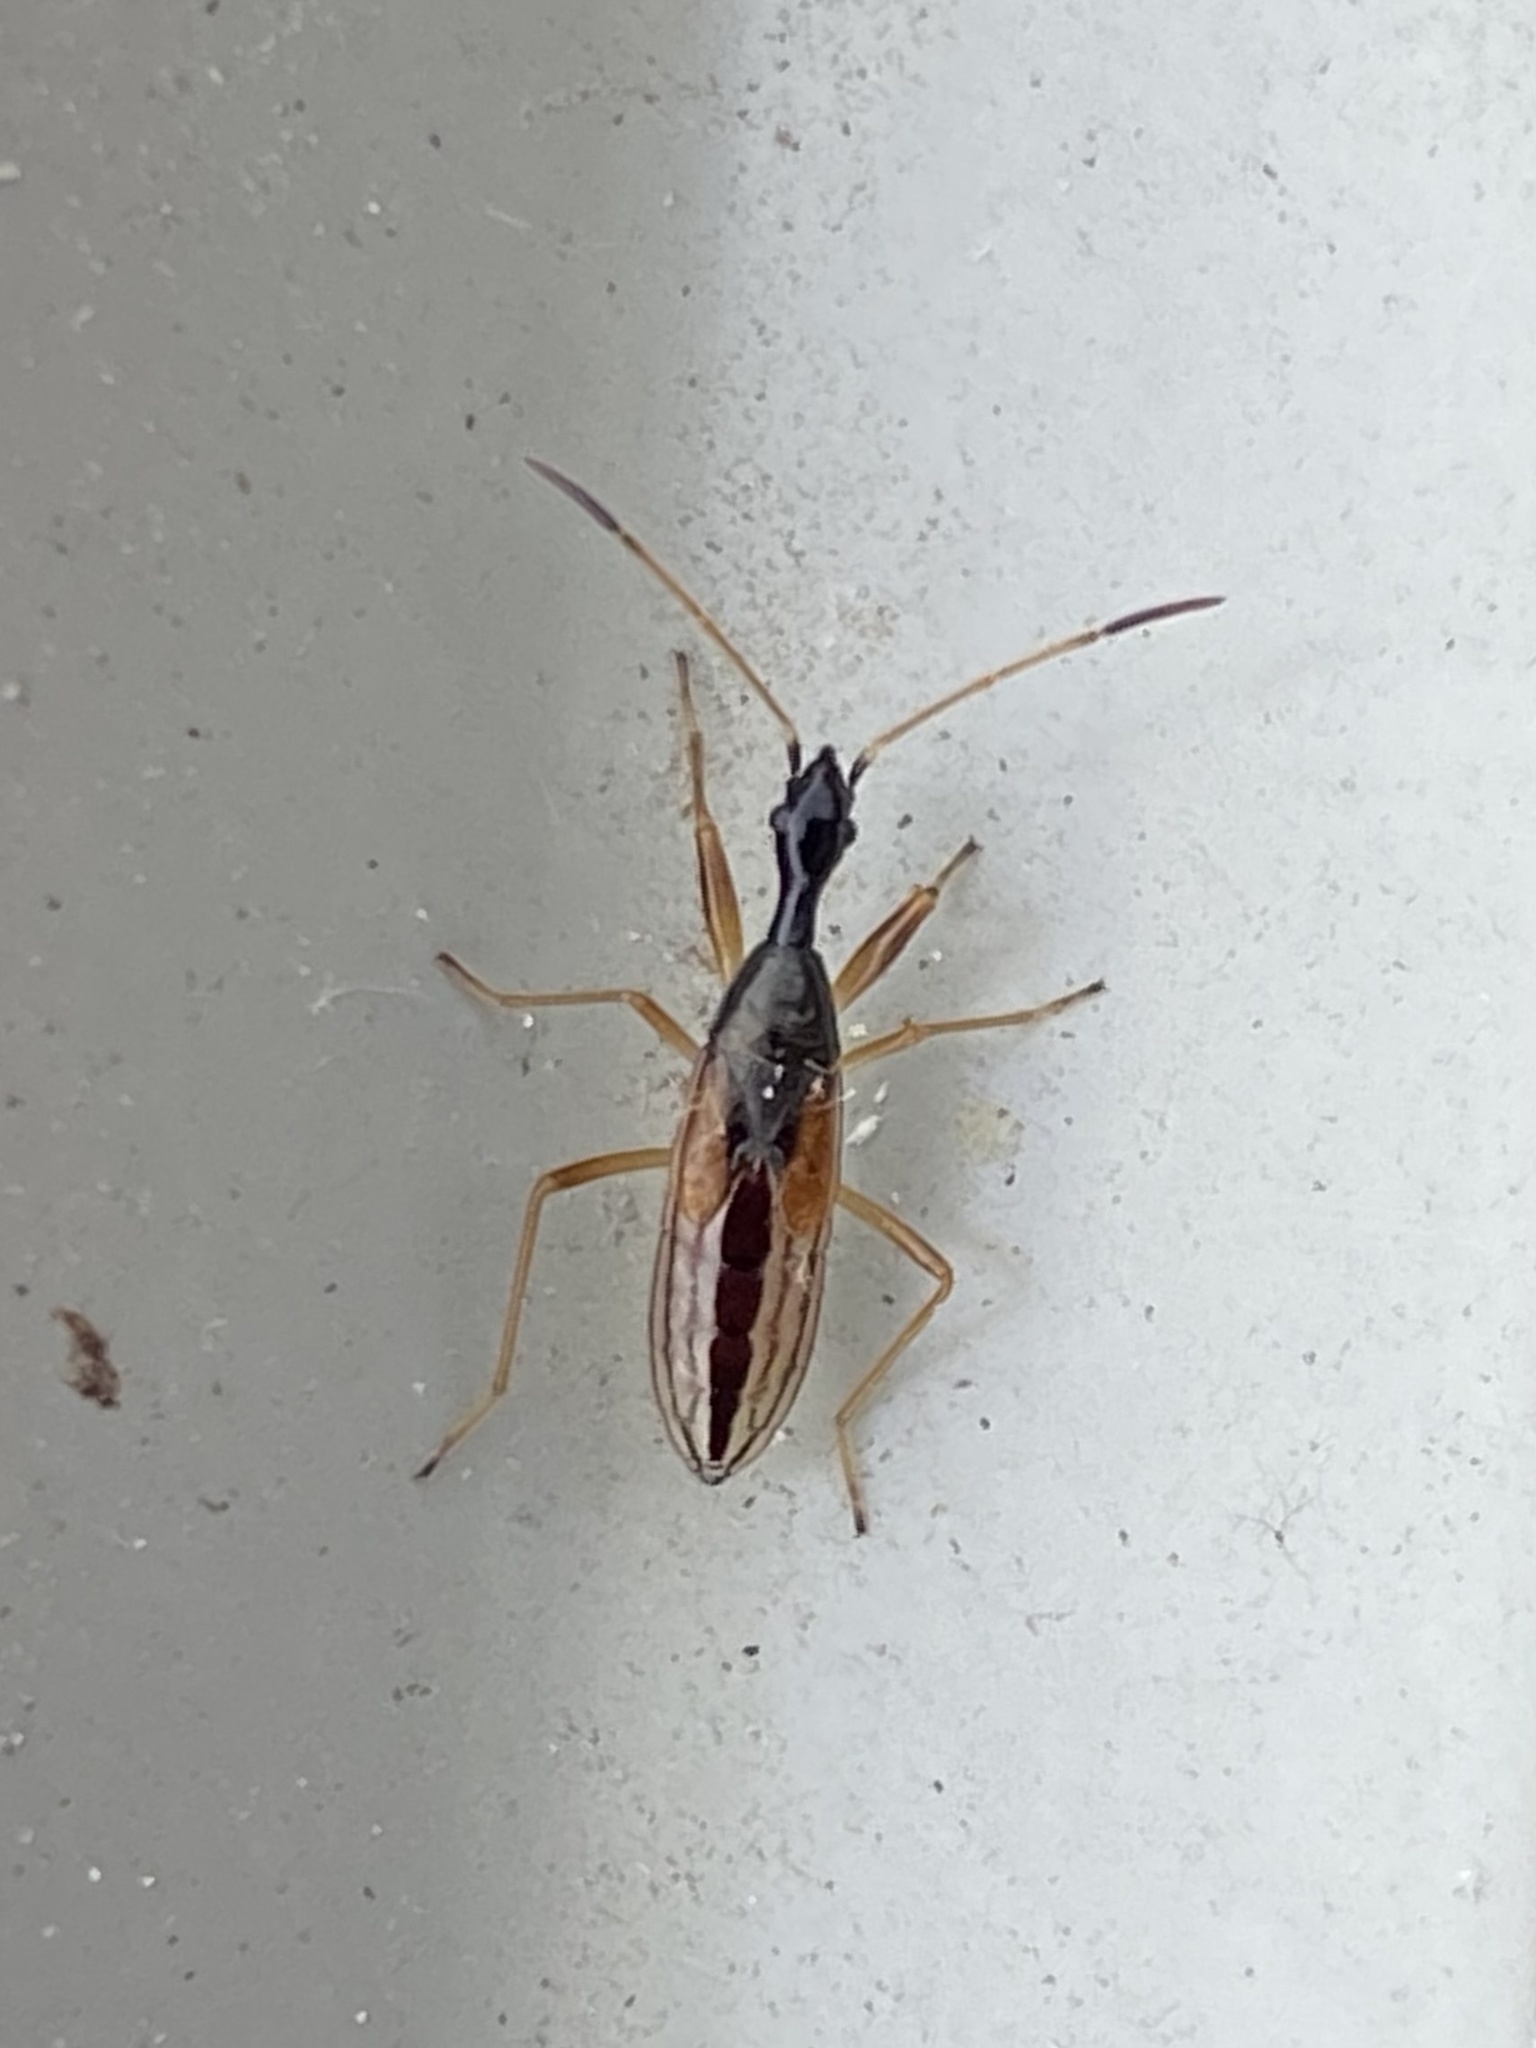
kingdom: Animalia
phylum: Arthropoda
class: Insecta
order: Hemiptera
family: Rhyparochromidae
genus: Myodocha
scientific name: Myodocha serripes
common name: Long-necked seed bug
